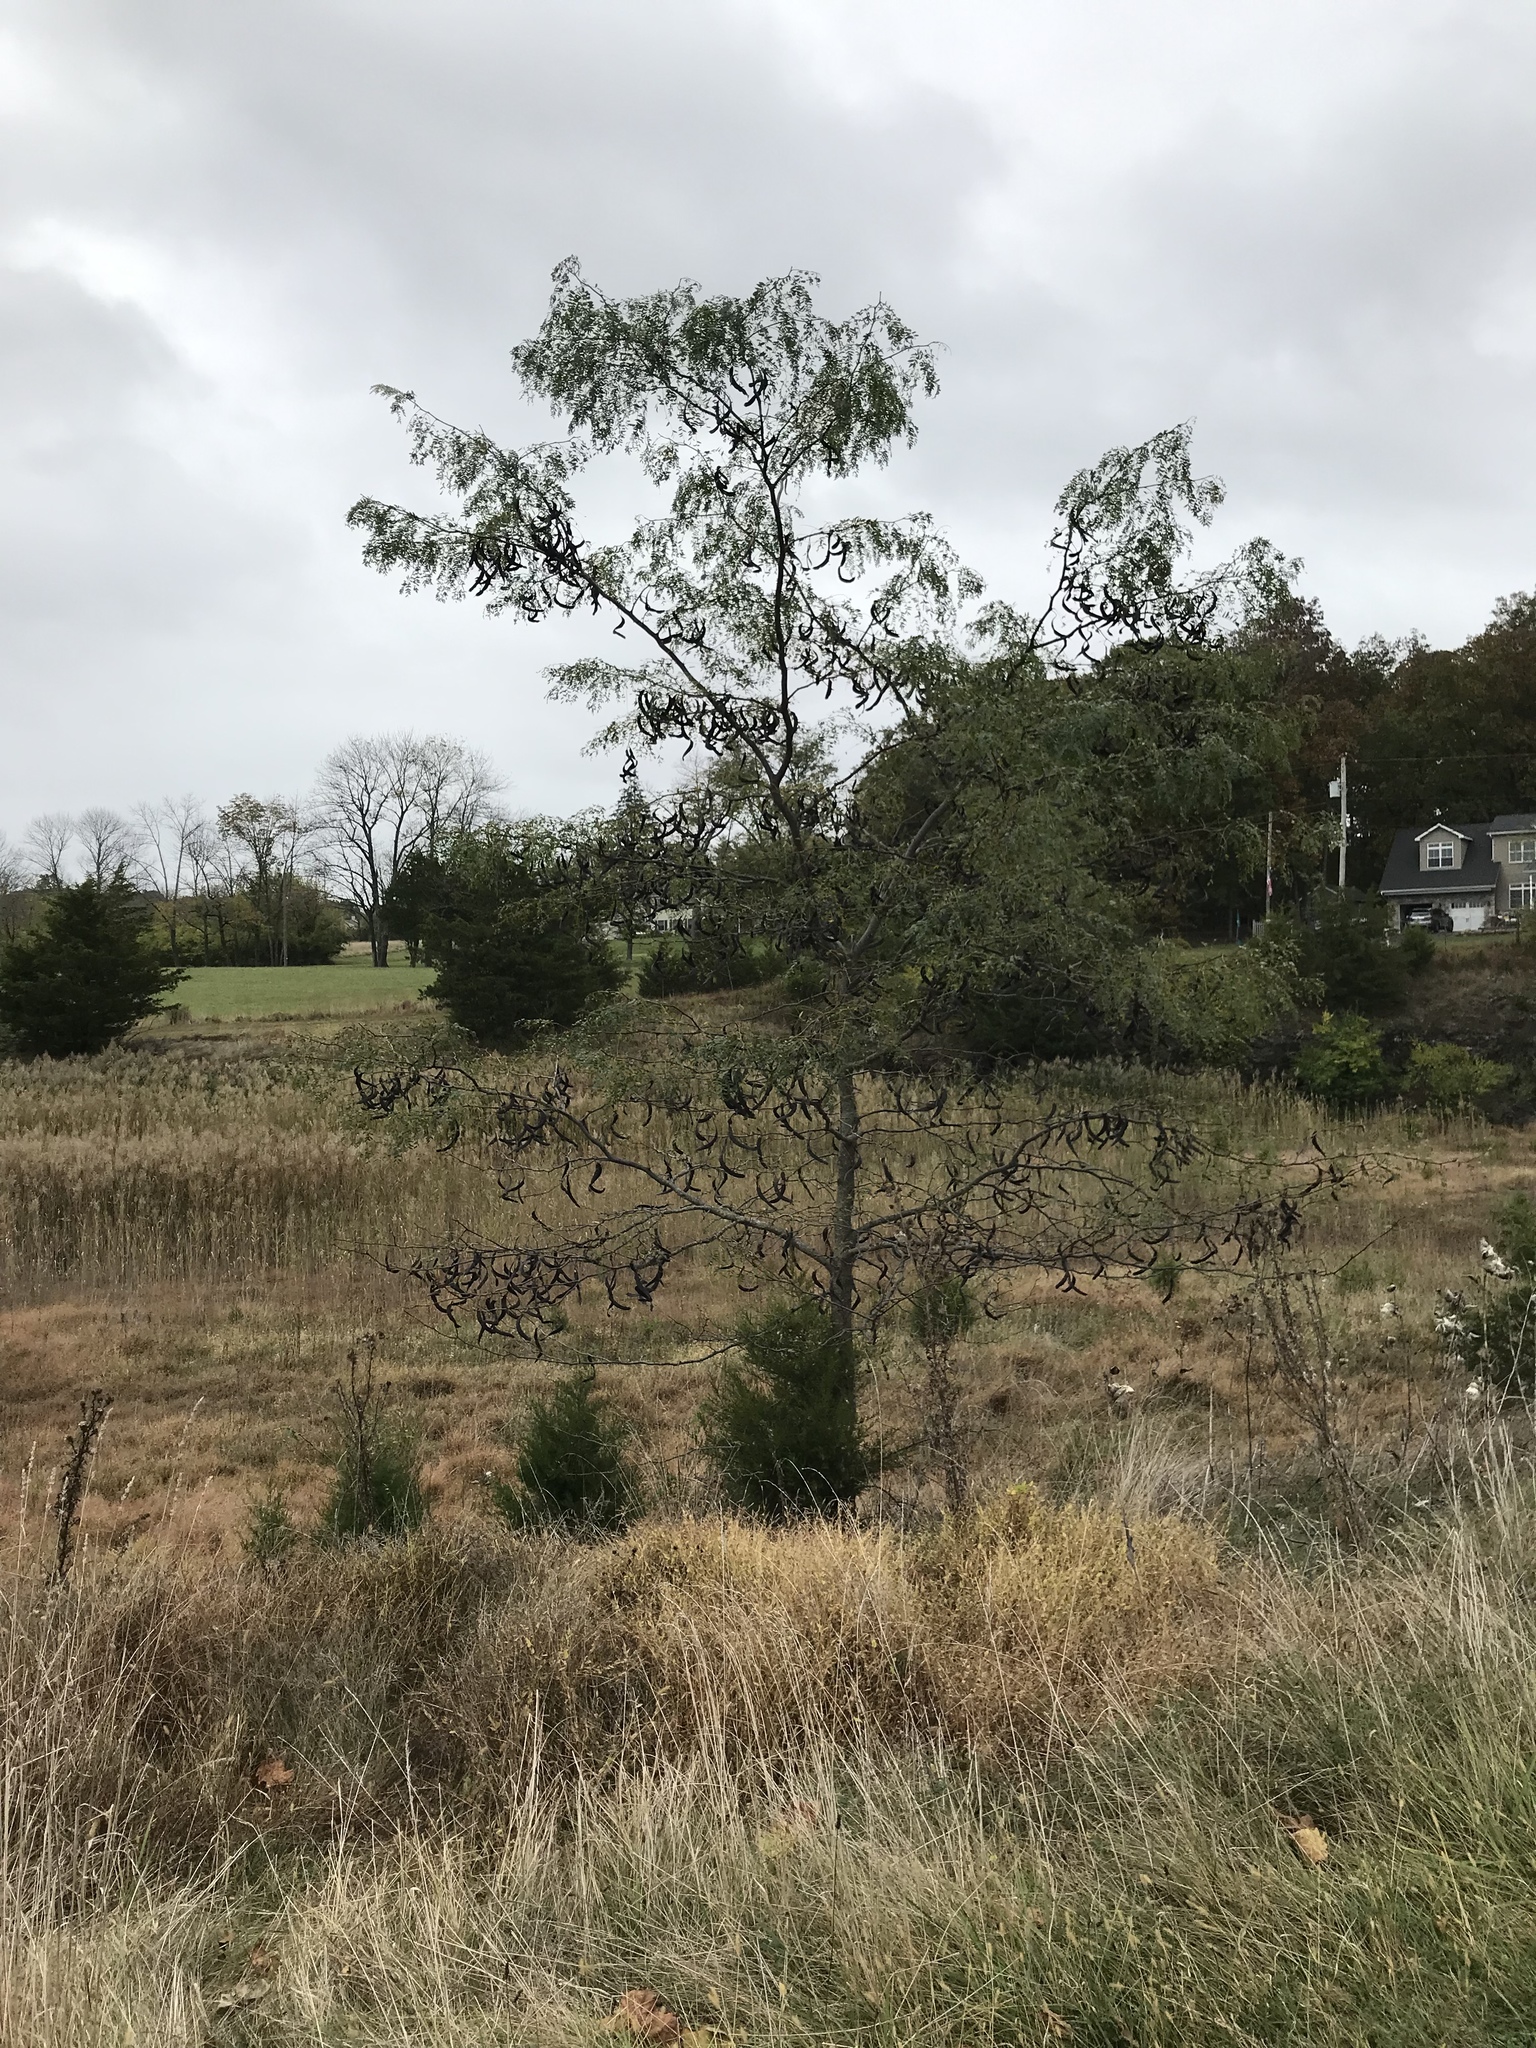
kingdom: Plantae
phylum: Tracheophyta
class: Magnoliopsida
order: Fabales
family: Fabaceae
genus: Gleditsia
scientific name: Gleditsia triacanthos
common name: Common honeylocust
